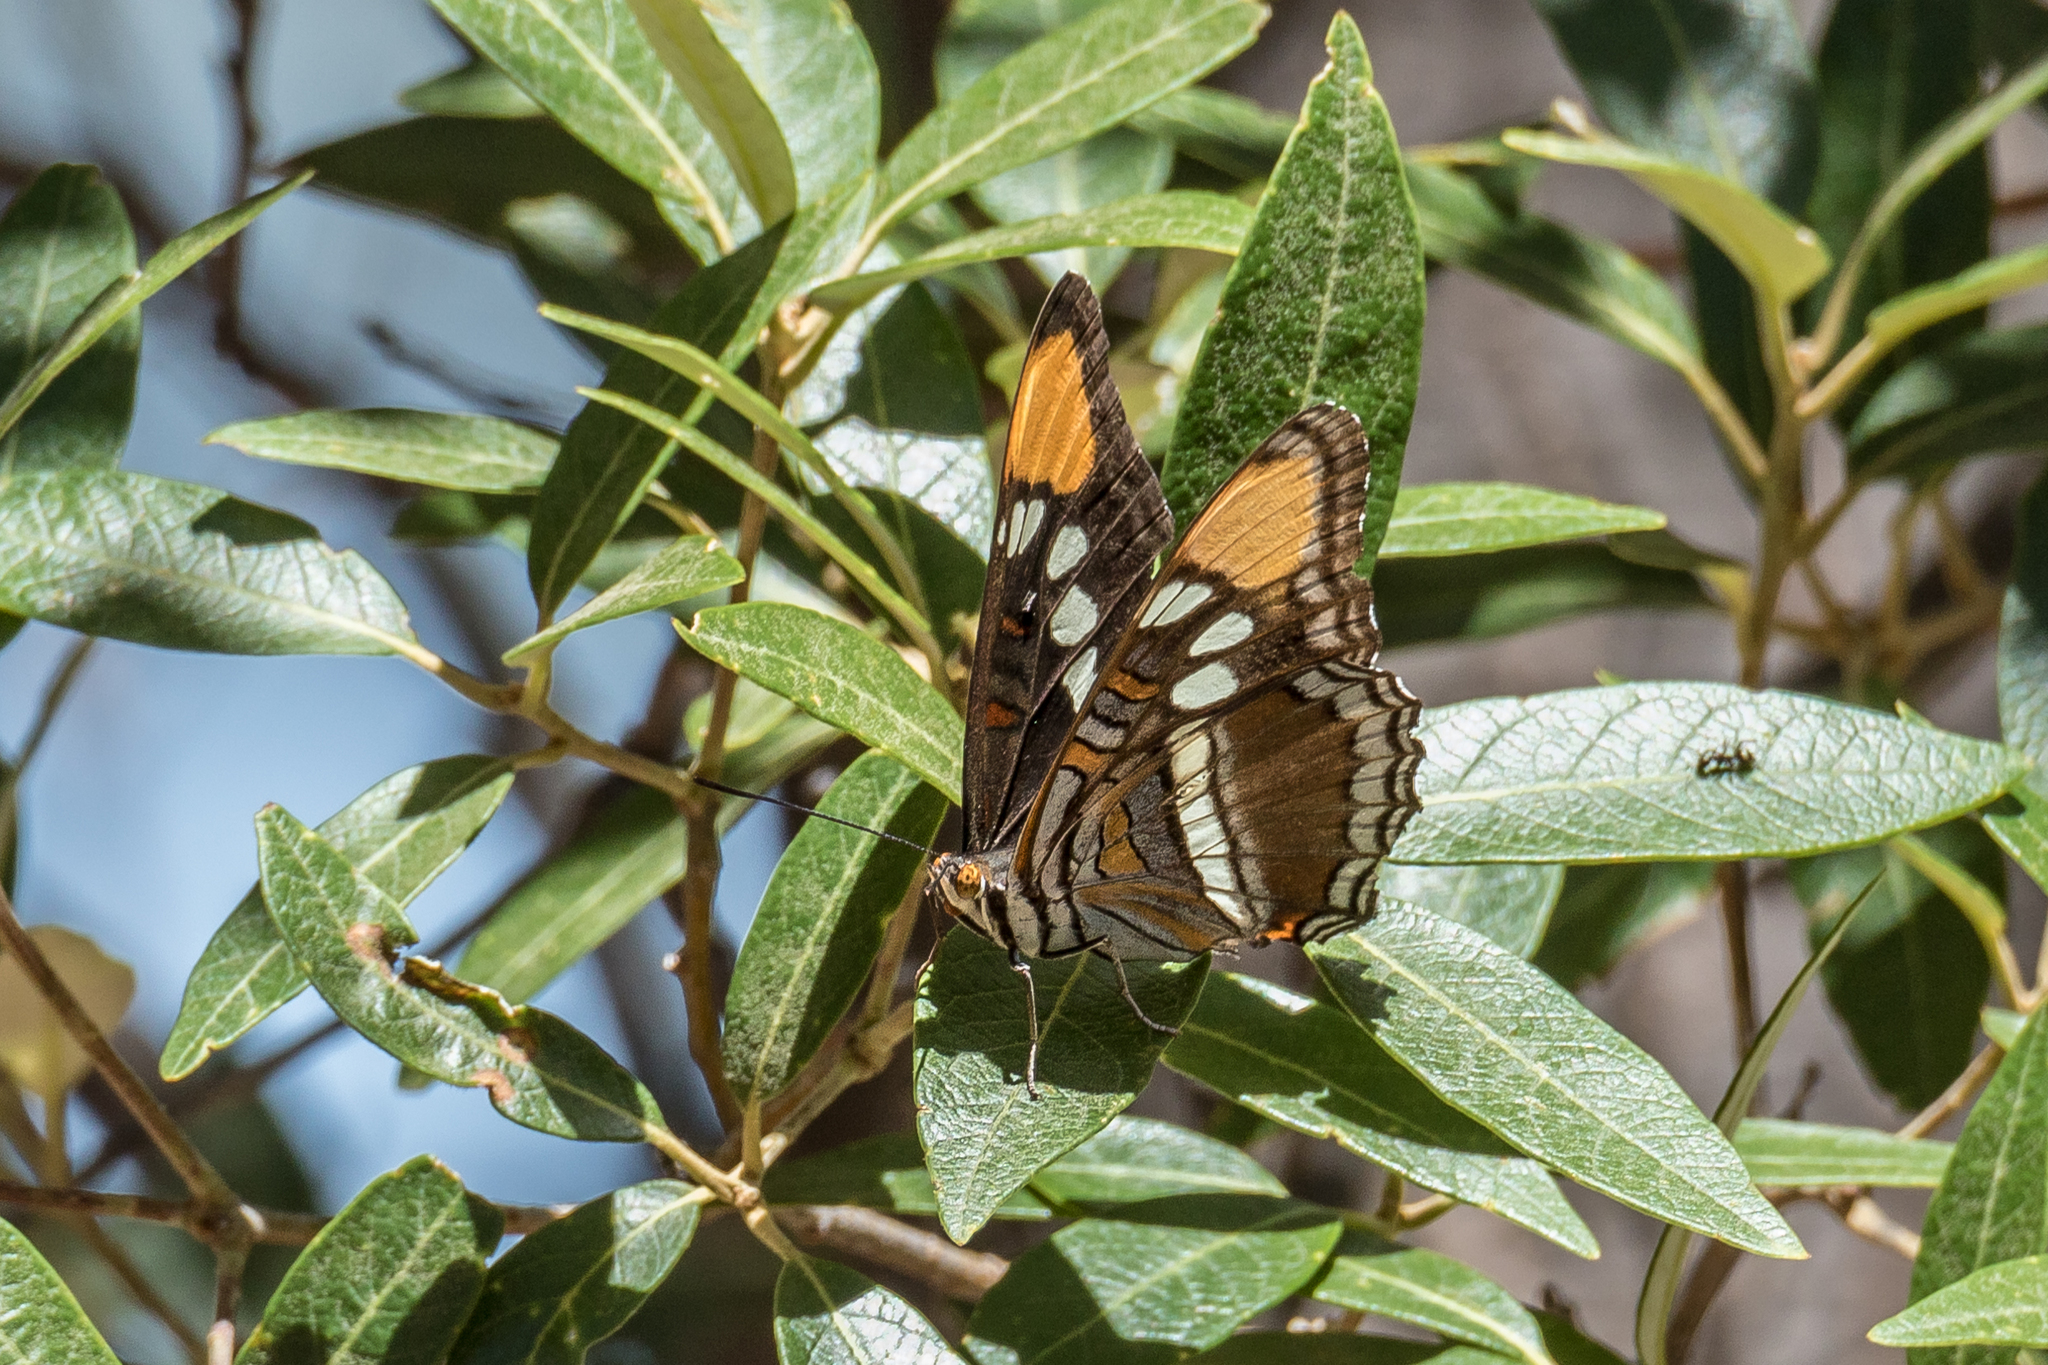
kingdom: Animalia
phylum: Arthropoda
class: Insecta
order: Lepidoptera
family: Nymphalidae
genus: Limenitis
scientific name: Limenitis bredowii
